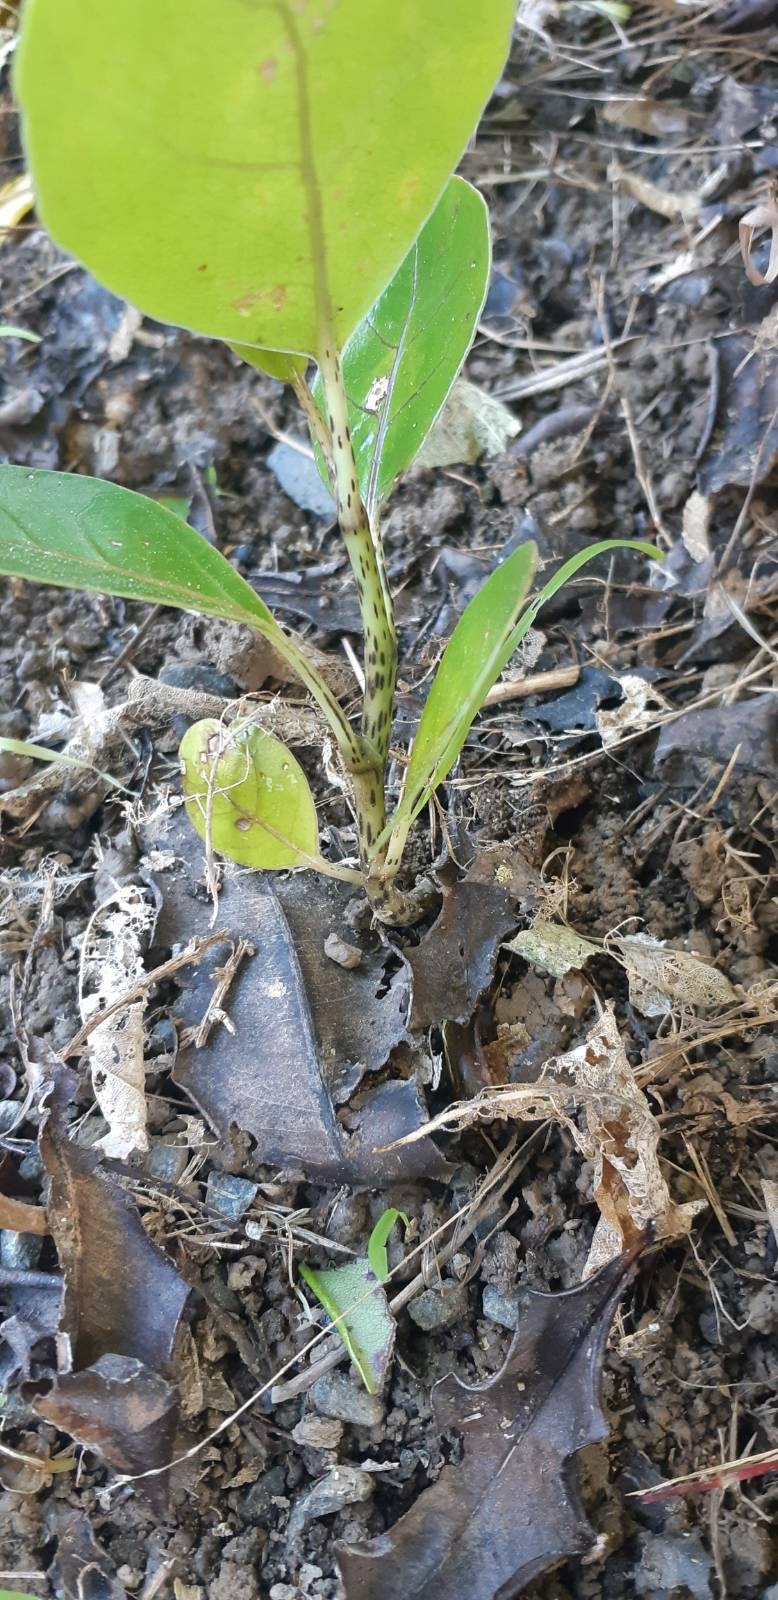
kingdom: Plantae
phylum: Tracheophyta
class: Magnoliopsida
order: Apiales
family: Araliaceae
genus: Meryta
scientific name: Meryta sinclairii
